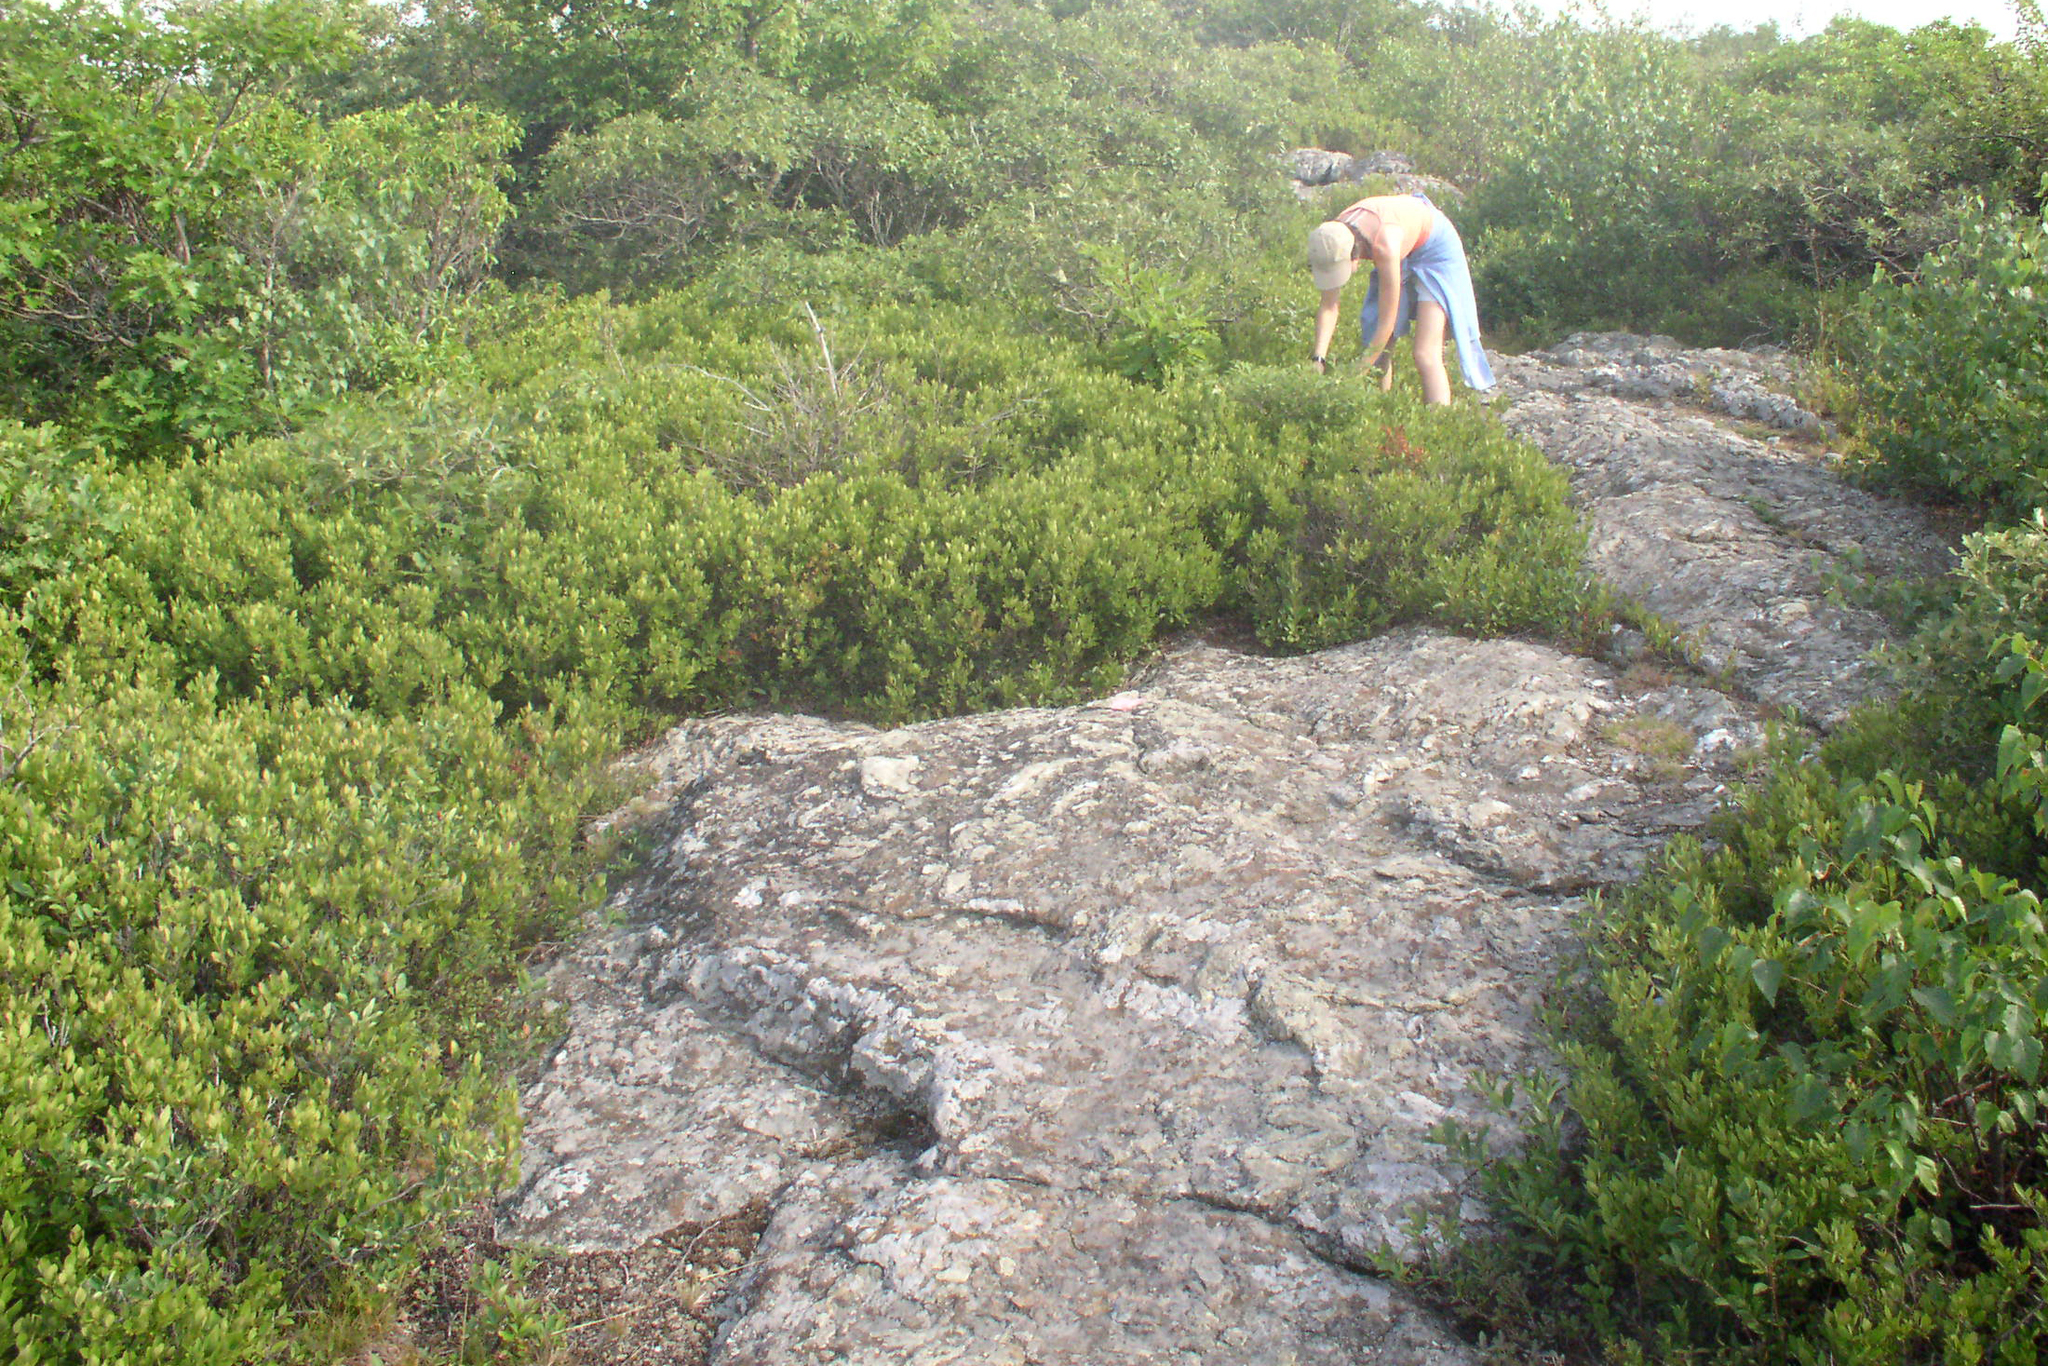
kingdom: Plantae
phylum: Tracheophyta
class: Magnoliopsida
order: Ericales
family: Ericaceae
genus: Gaylussacia
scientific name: Gaylussacia baccata
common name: Black huckleberry
